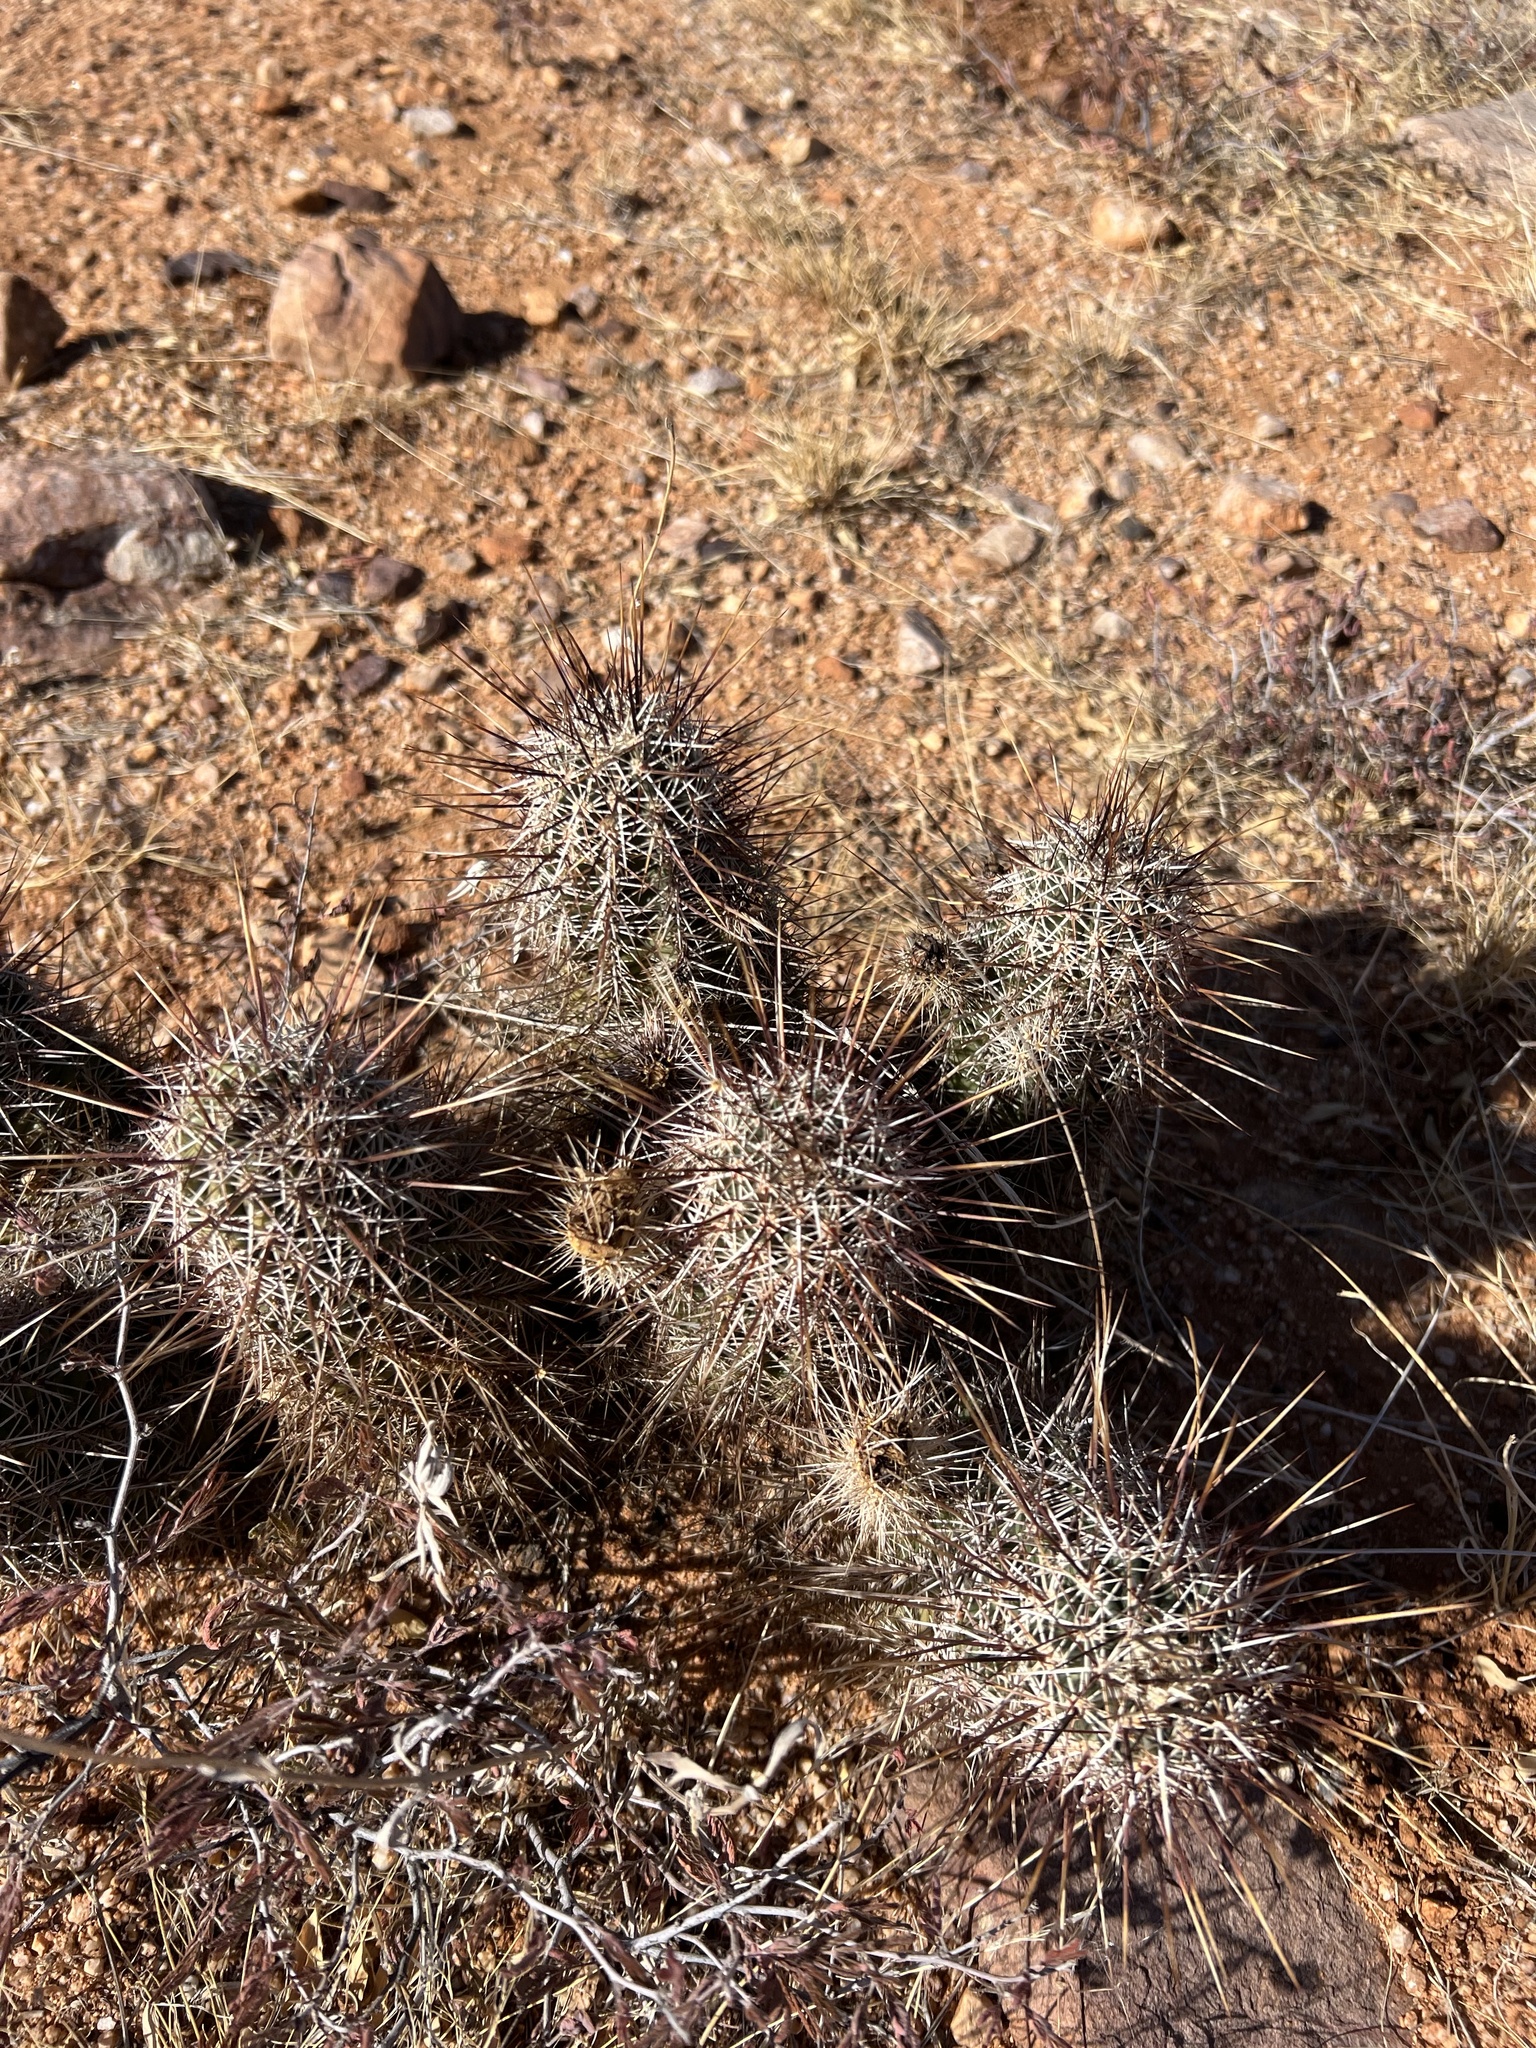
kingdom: Plantae
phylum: Tracheophyta
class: Magnoliopsida
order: Caryophyllales
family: Cactaceae
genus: Echinocereus
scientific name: Echinocereus fasciculatus
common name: Bundle hedgehog
